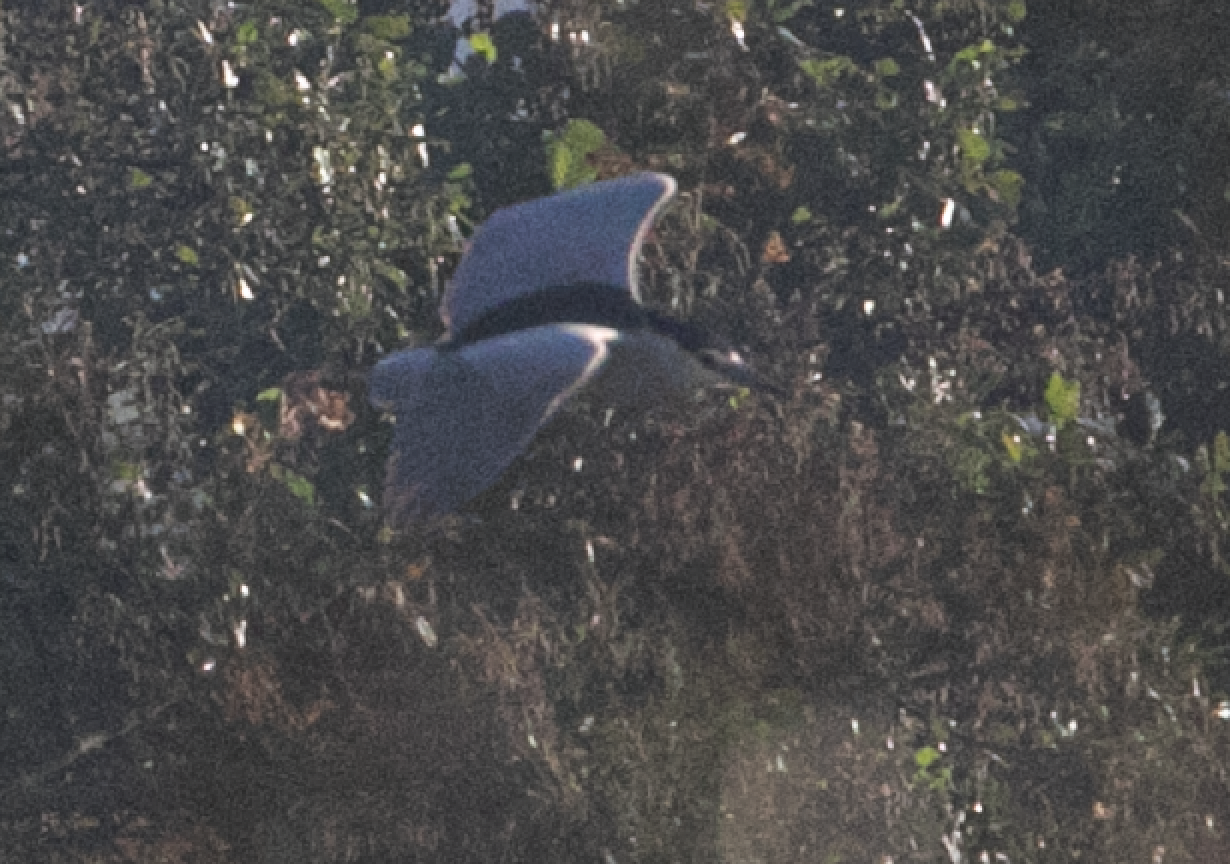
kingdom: Animalia
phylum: Chordata
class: Aves
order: Pelecaniformes
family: Ardeidae
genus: Nycticorax
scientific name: Nycticorax nycticorax
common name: Black-crowned night heron
